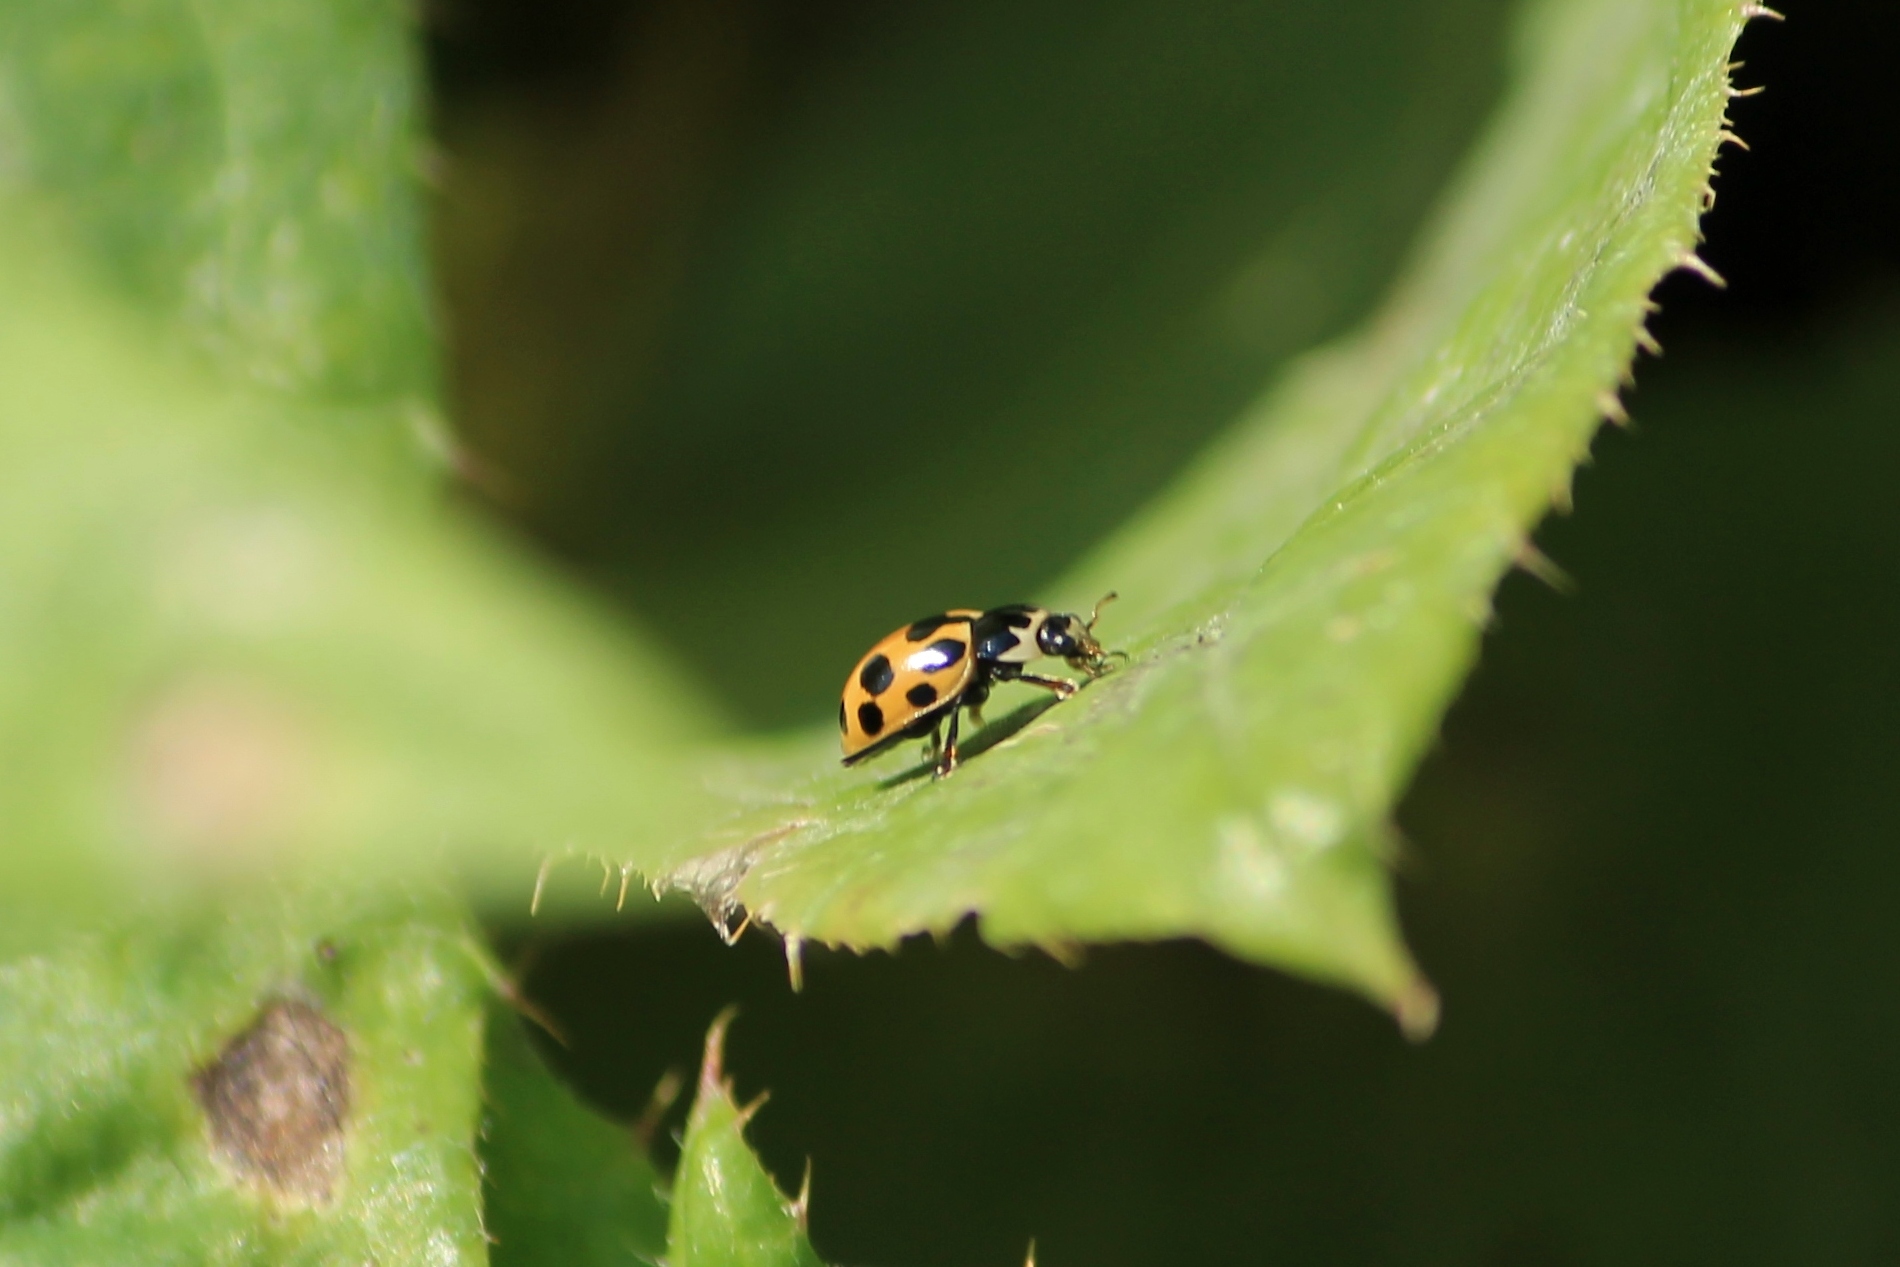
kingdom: Animalia
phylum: Arthropoda
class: Insecta
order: Coleoptera
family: Coccinellidae
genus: Ceratomegilla
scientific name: Ceratomegilla notata
